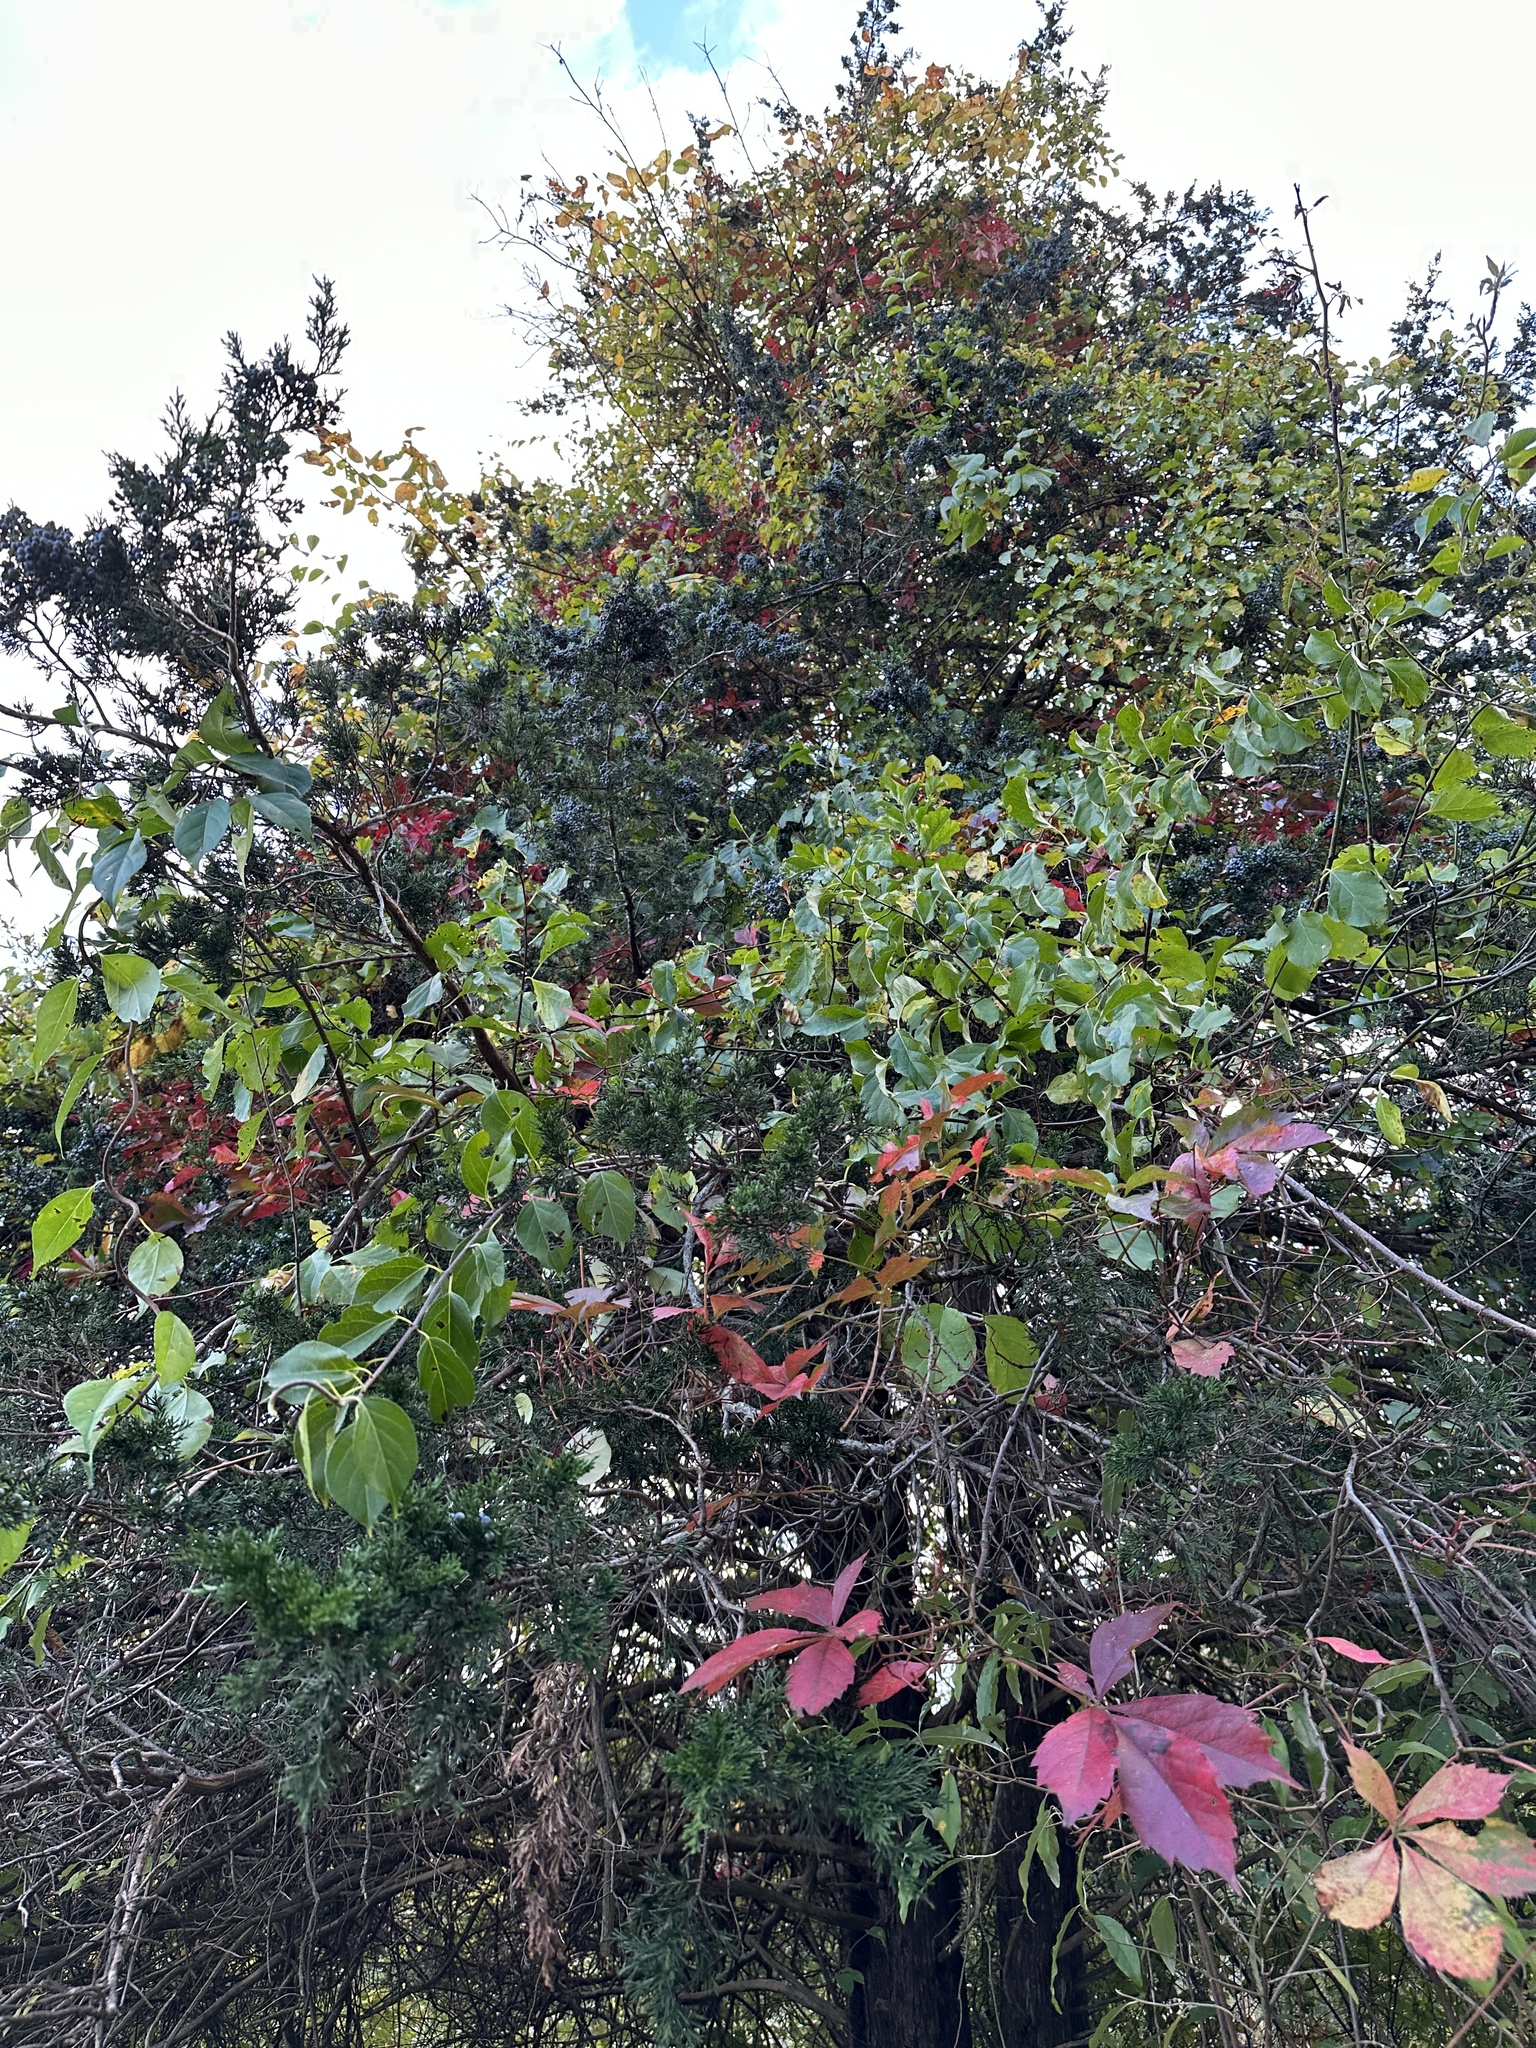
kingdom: Plantae
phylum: Tracheophyta
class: Pinopsida
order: Pinales
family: Cupressaceae
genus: Juniperus
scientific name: Juniperus virginiana
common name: Red juniper
